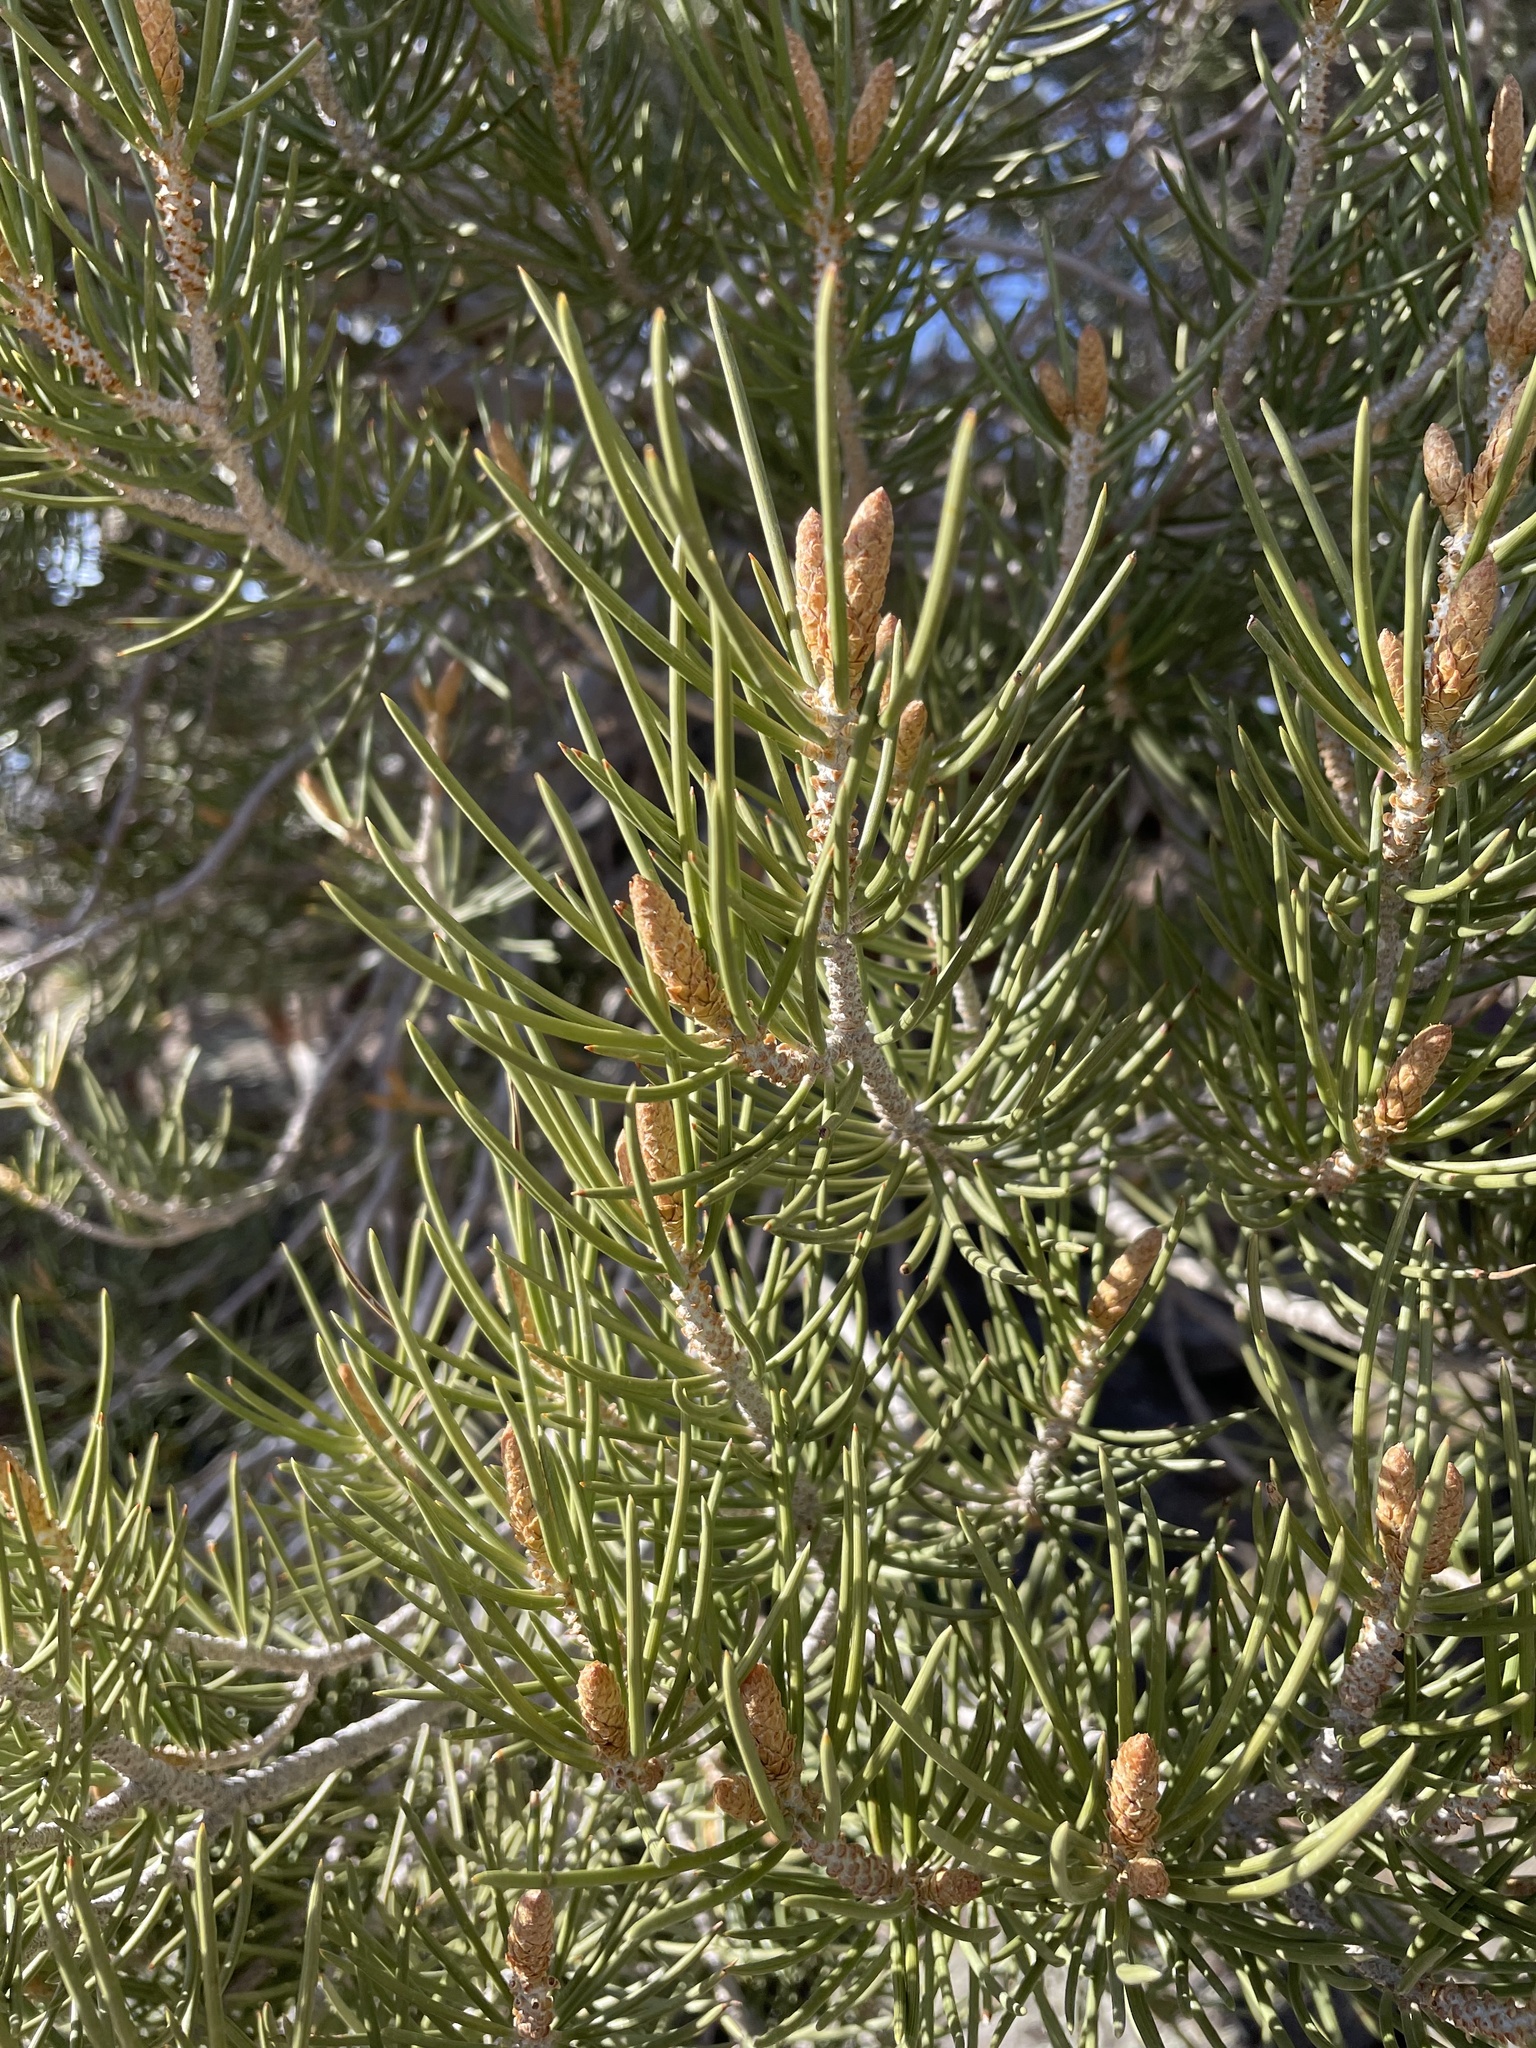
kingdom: Plantae
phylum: Tracheophyta
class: Pinopsida
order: Pinales
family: Pinaceae
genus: Pinus
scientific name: Pinus monophylla
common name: One-leaved nut pine
